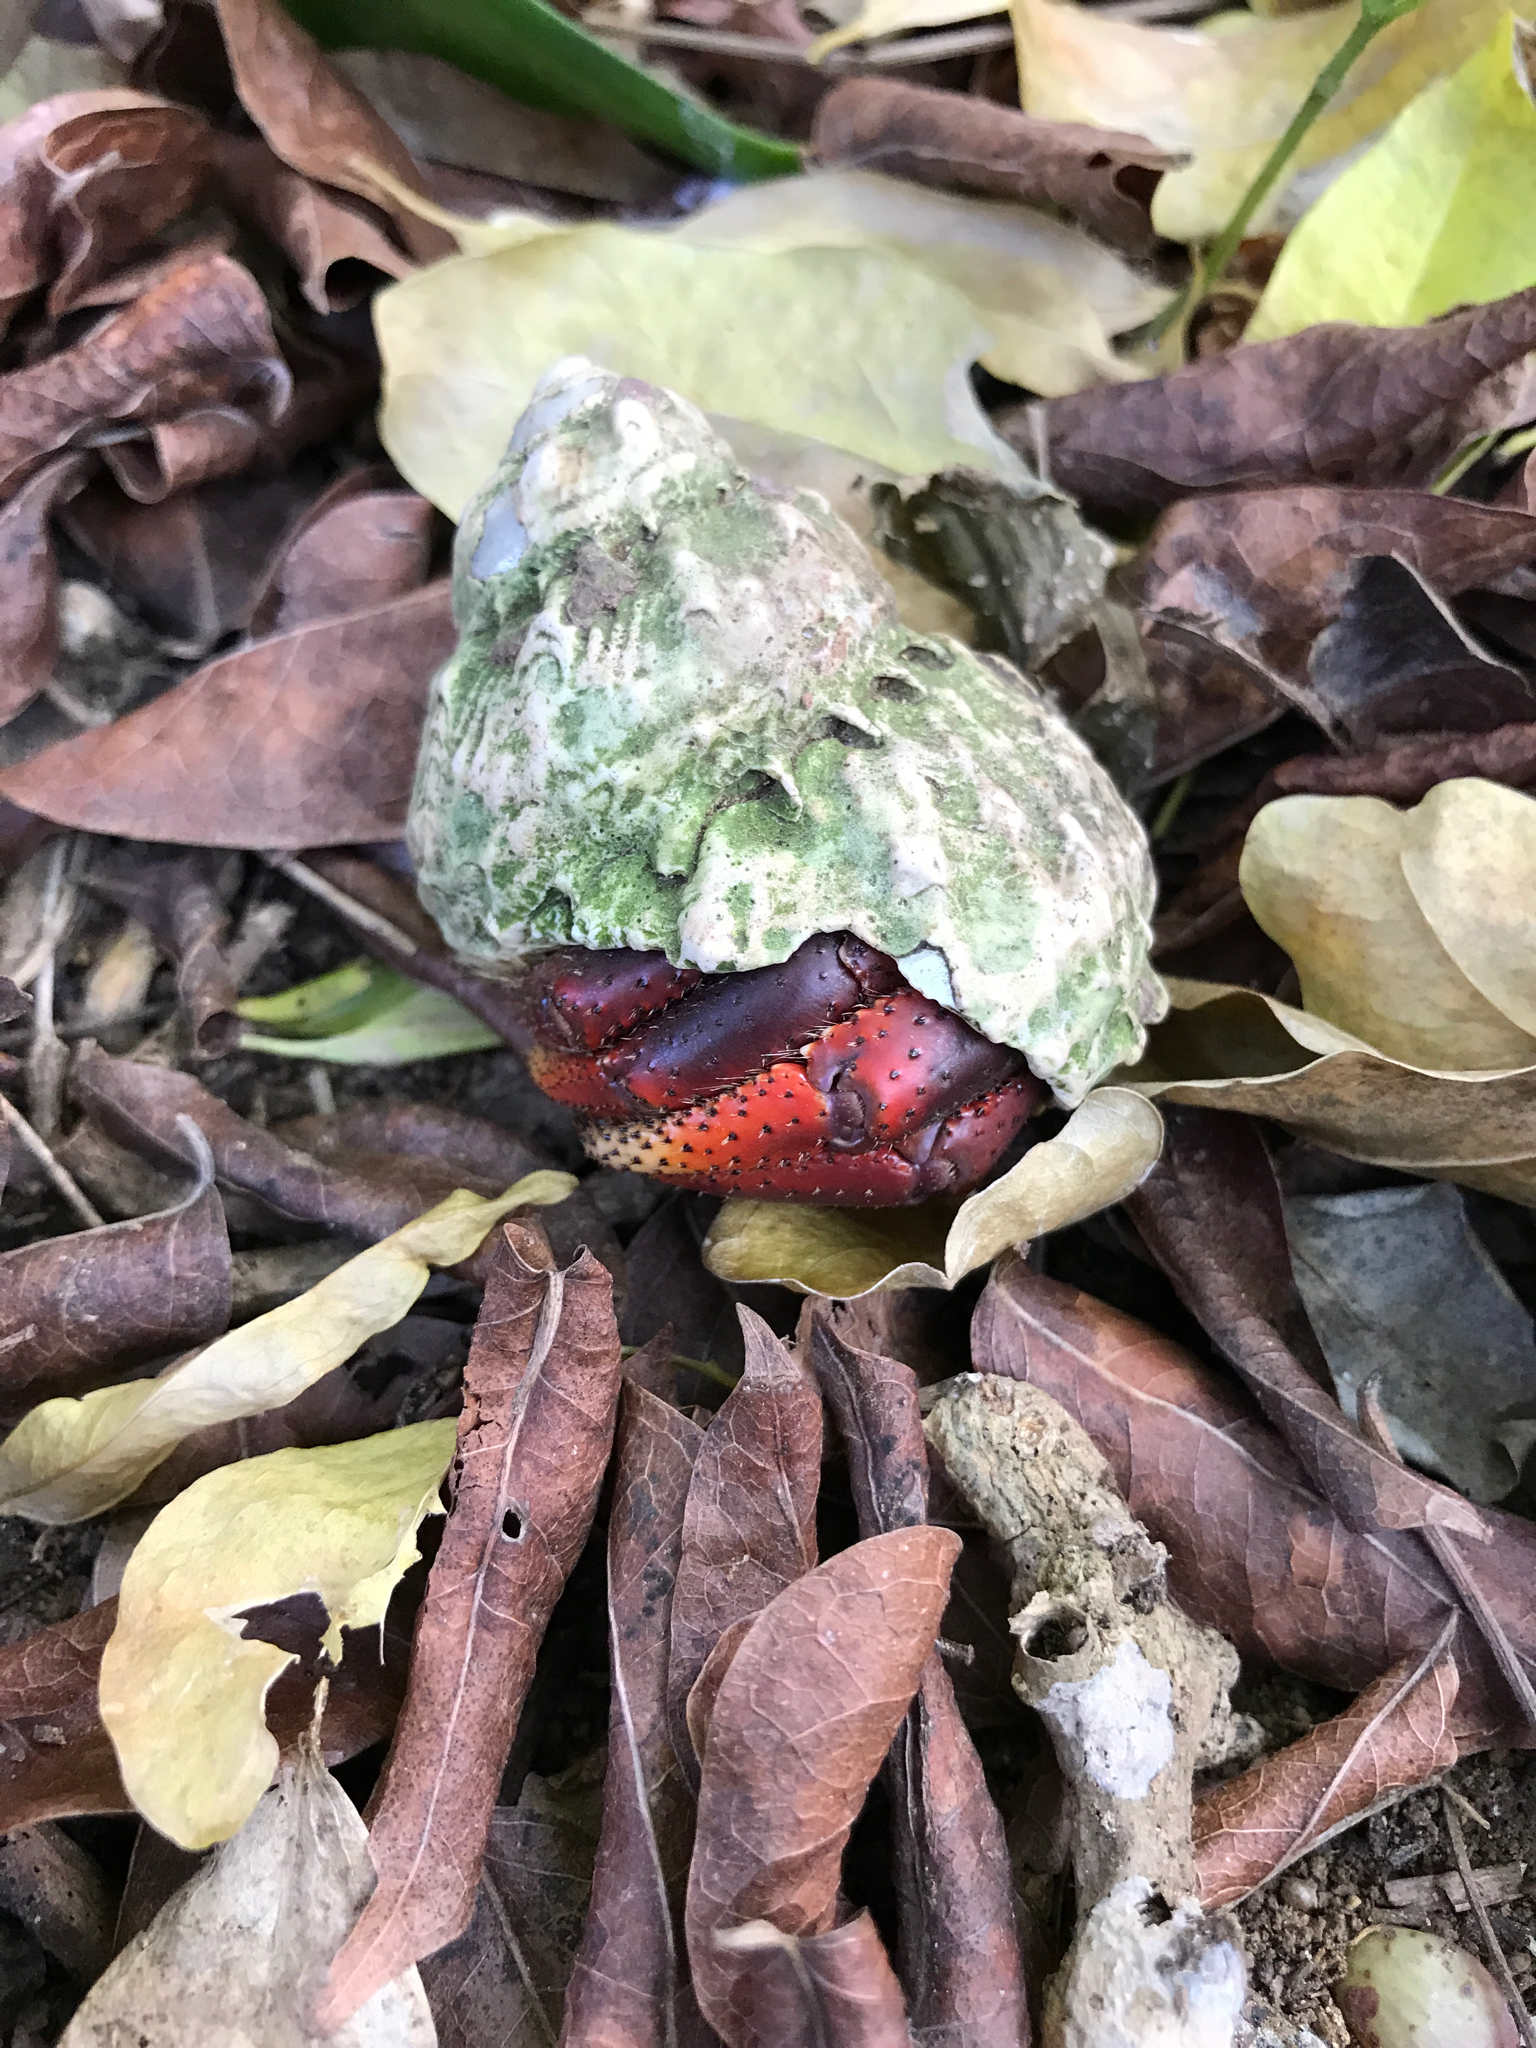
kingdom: Animalia
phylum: Arthropoda
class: Malacostraca
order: Decapoda
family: Coenobitidae
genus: Coenobita
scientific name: Coenobita clypeatus
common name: Caribbean hermit crab
